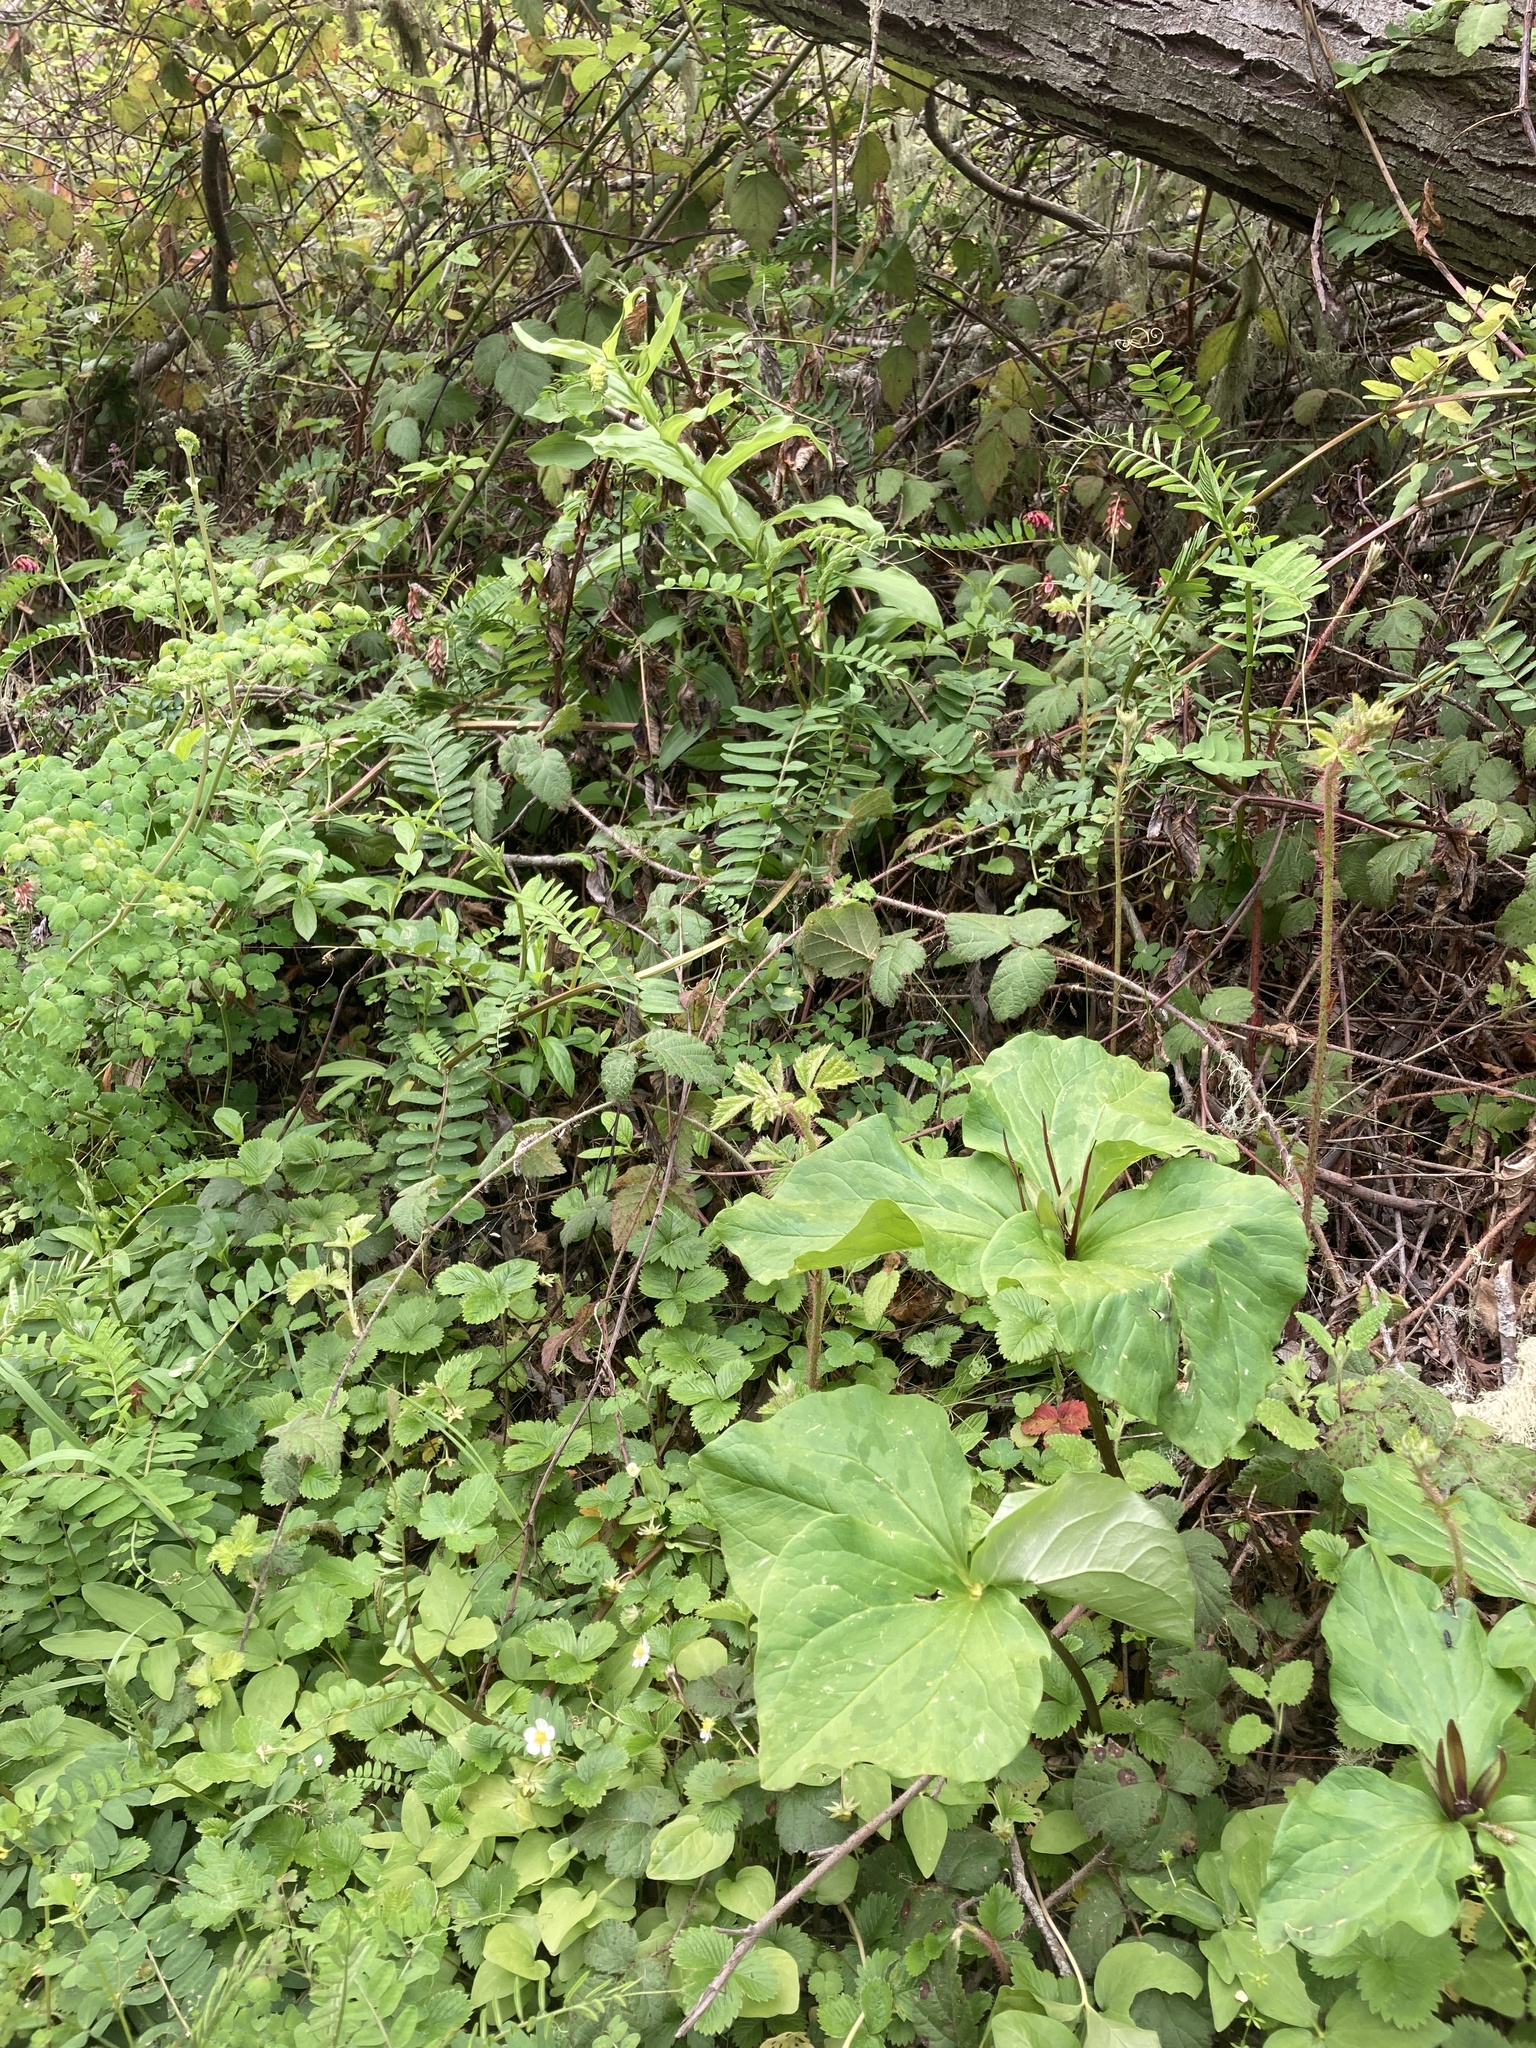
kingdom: Plantae
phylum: Tracheophyta
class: Liliopsida
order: Liliales
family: Melanthiaceae
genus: Trillium
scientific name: Trillium angustipetalum
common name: Narrow-petaled trillium
